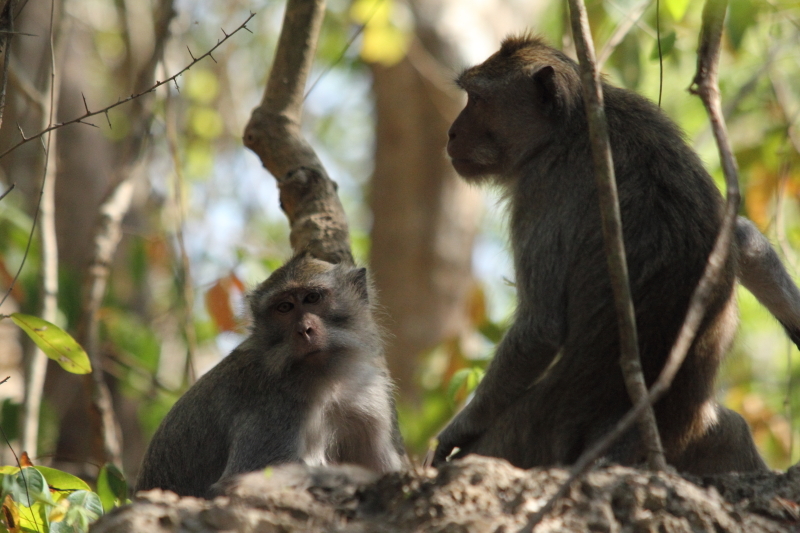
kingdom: Animalia
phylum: Chordata
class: Mammalia
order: Primates
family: Cercopithecidae
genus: Macaca
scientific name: Macaca fascicularis
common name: Crab-eating macaque
